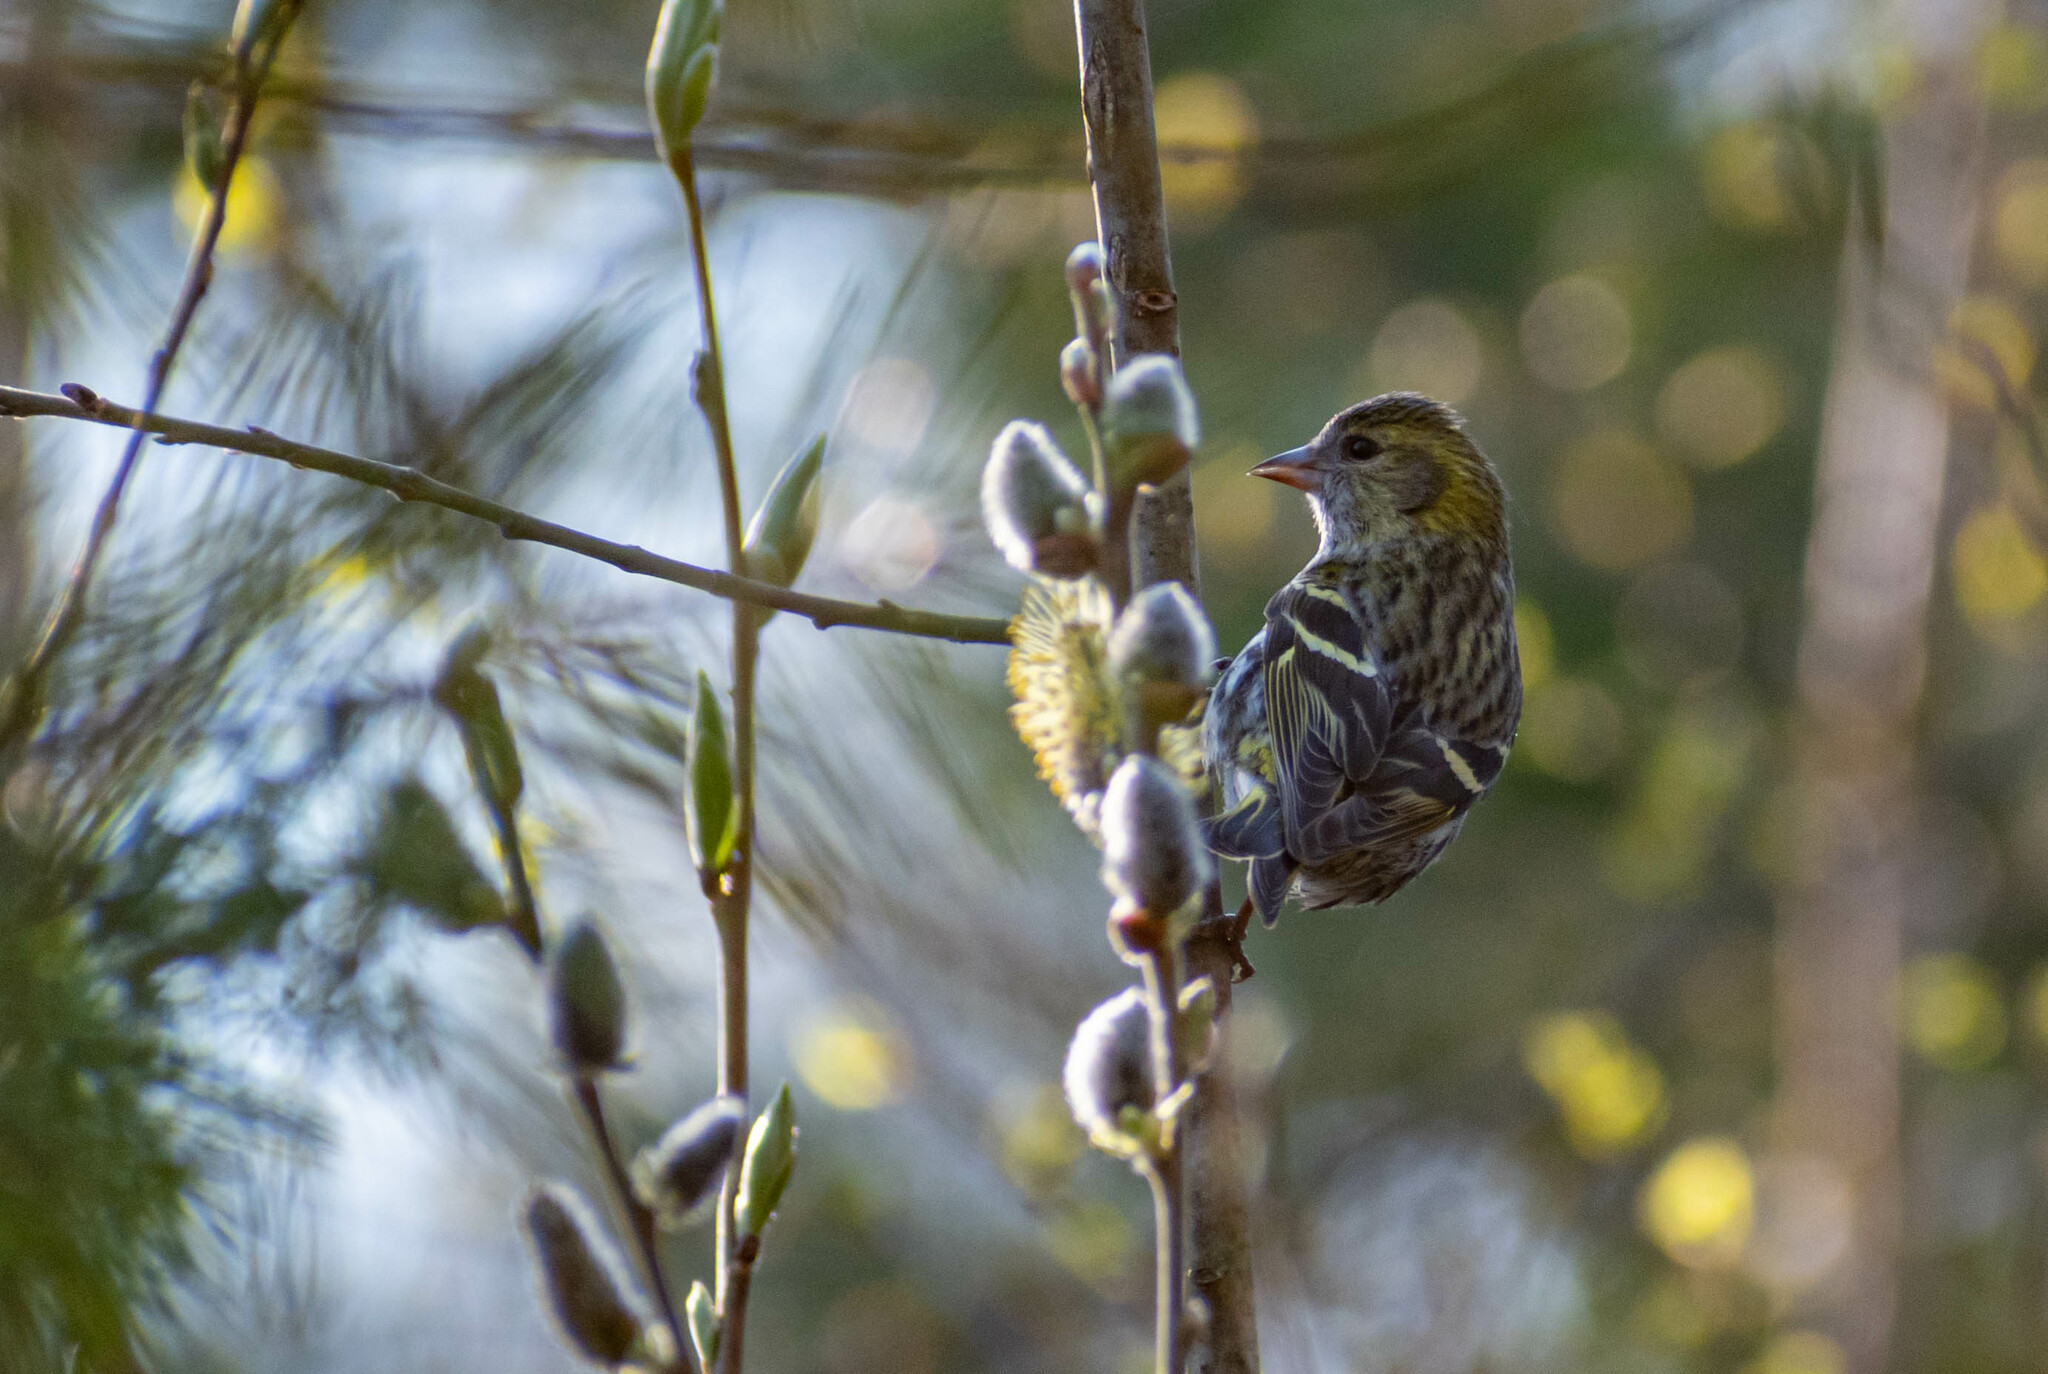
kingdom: Animalia
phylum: Chordata
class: Aves
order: Passeriformes
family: Fringillidae
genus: Spinus
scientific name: Spinus spinus
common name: Eurasian siskin
